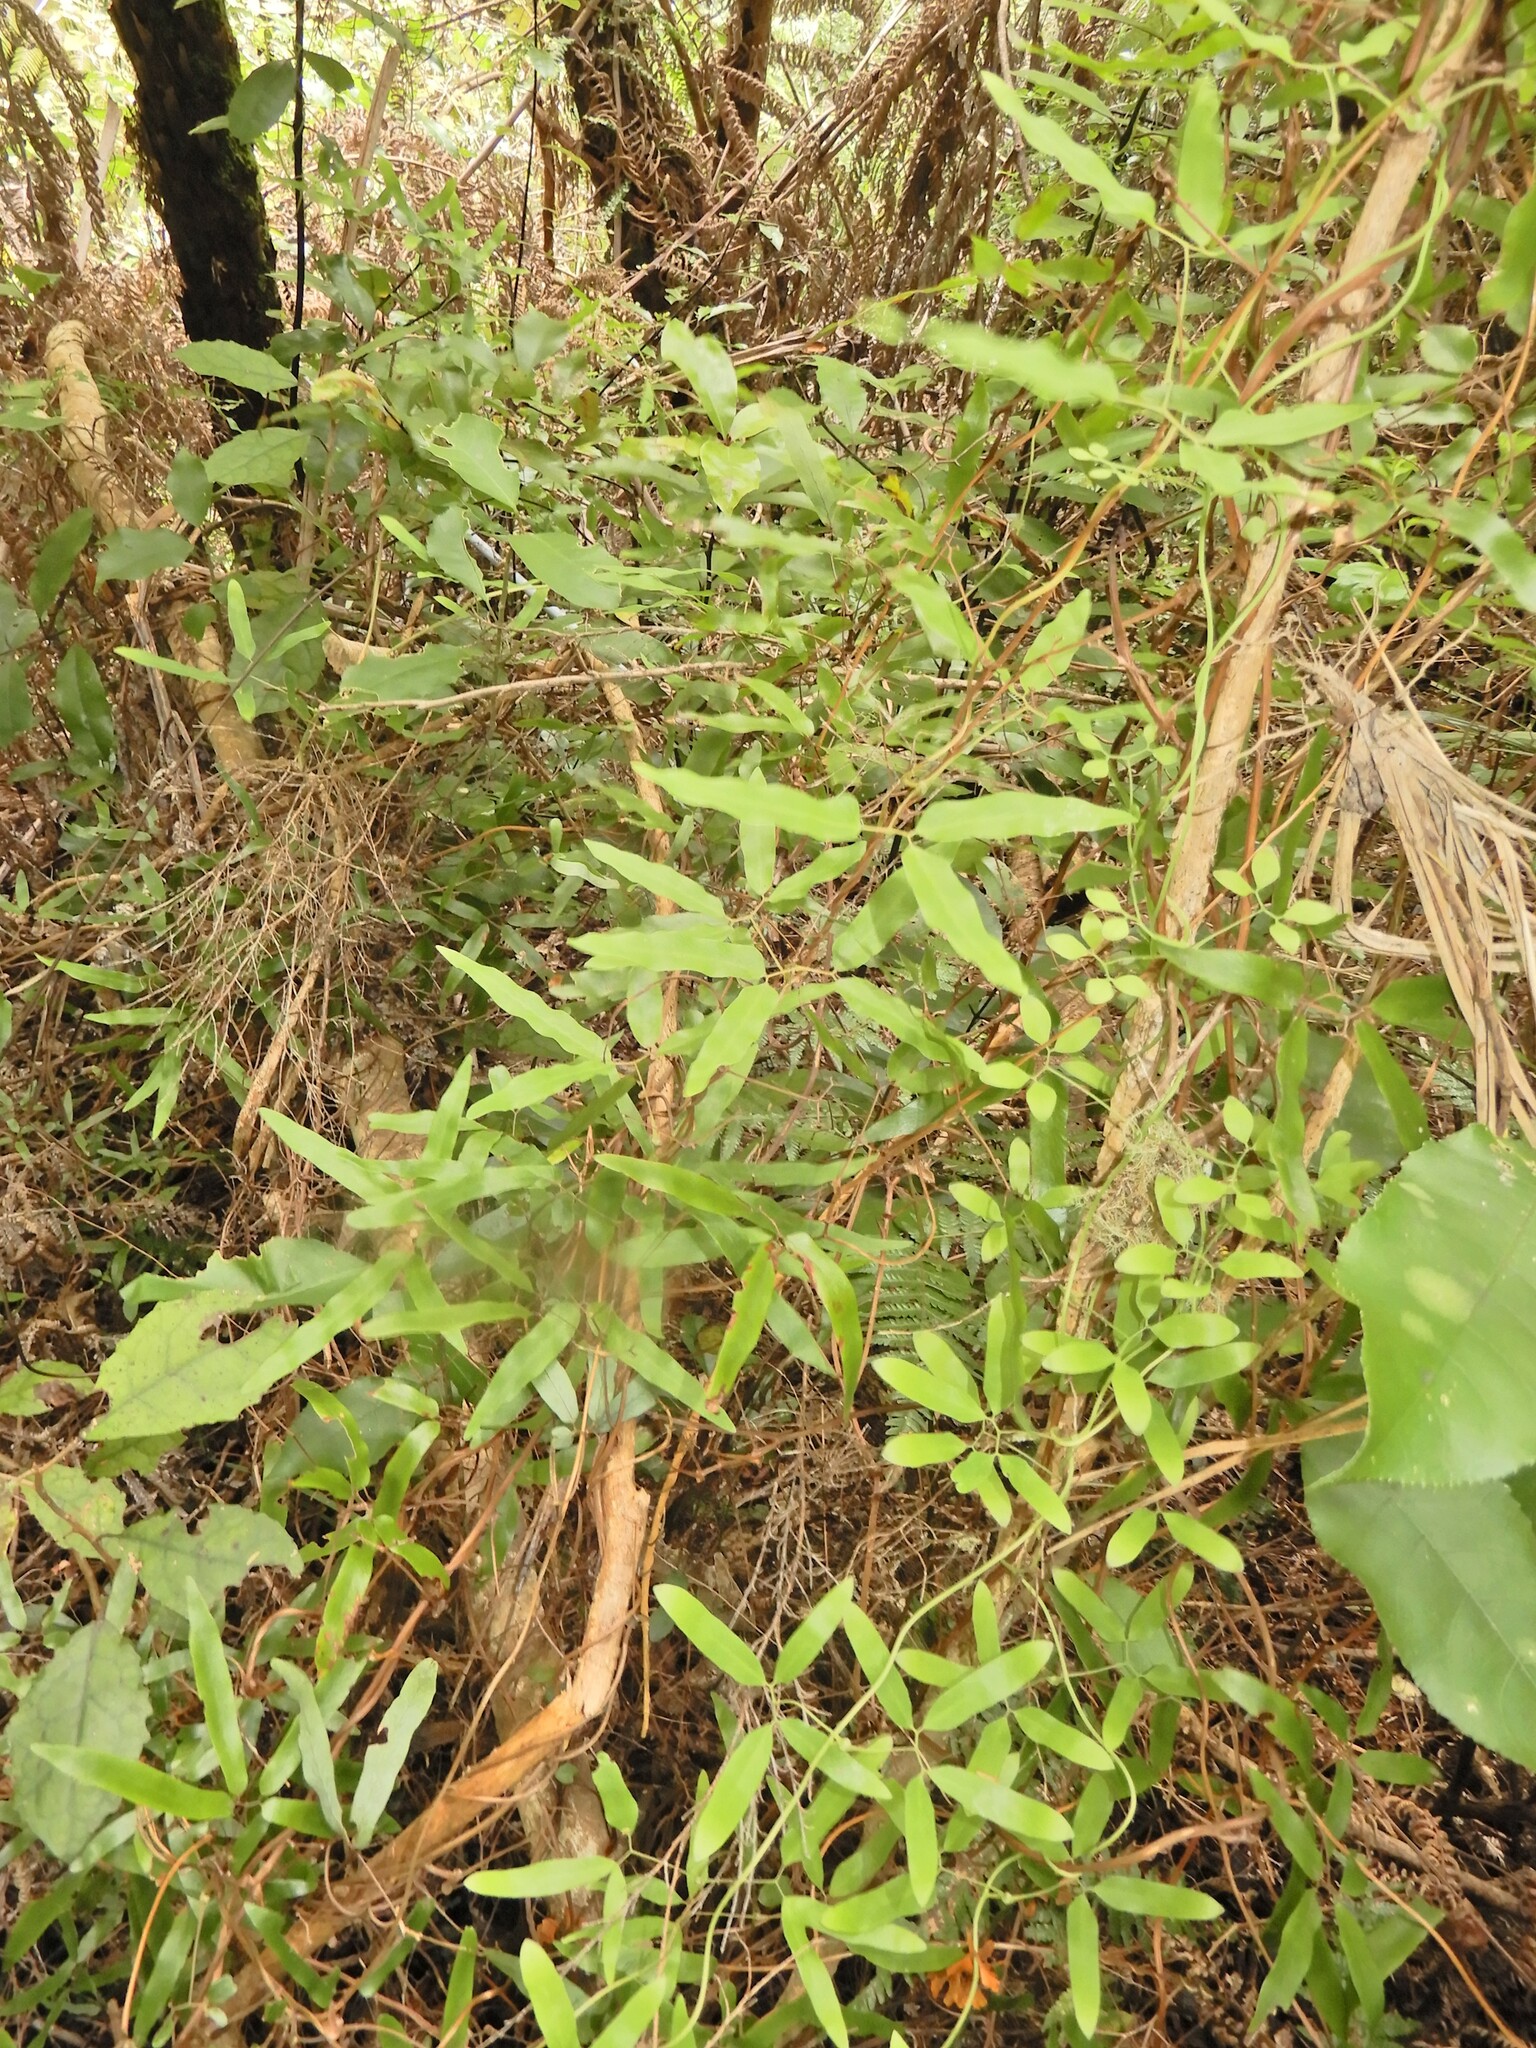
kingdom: Plantae
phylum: Tracheophyta
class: Polypodiopsida
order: Schizaeales
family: Lygodiaceae
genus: Lygodium
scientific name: Lygodium articulatum
